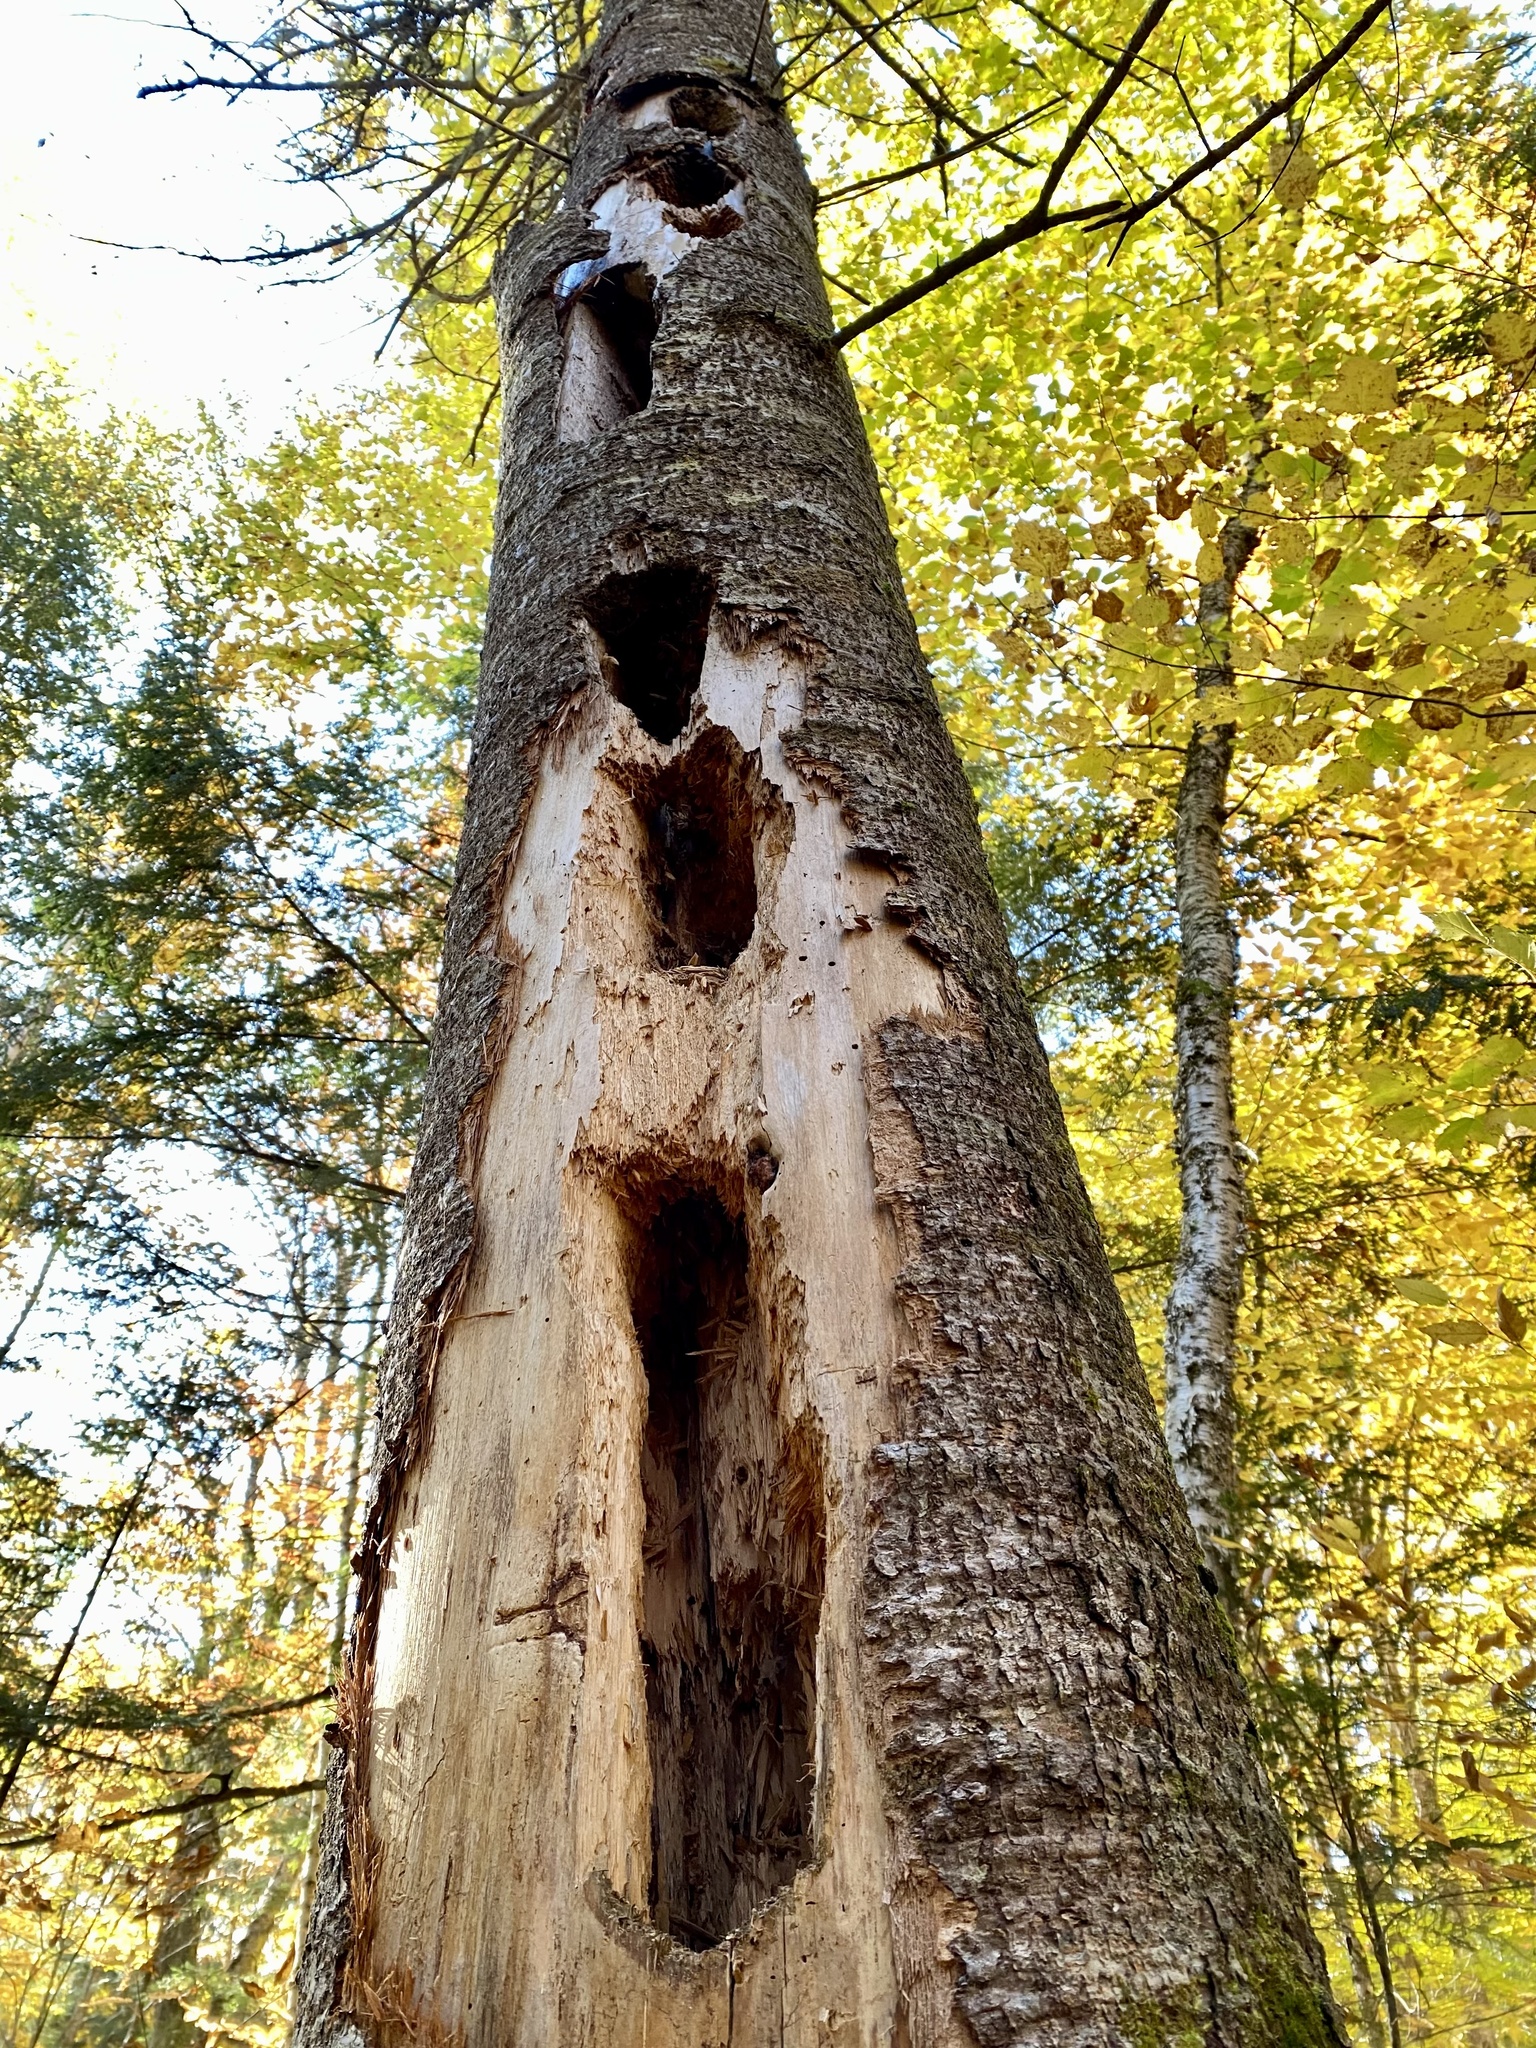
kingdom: Animalia
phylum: Chordata
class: Aves
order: Piciformes
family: Picidae
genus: Dryocopus
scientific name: Dryocopus pileatus
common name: Pileated woodpecker
